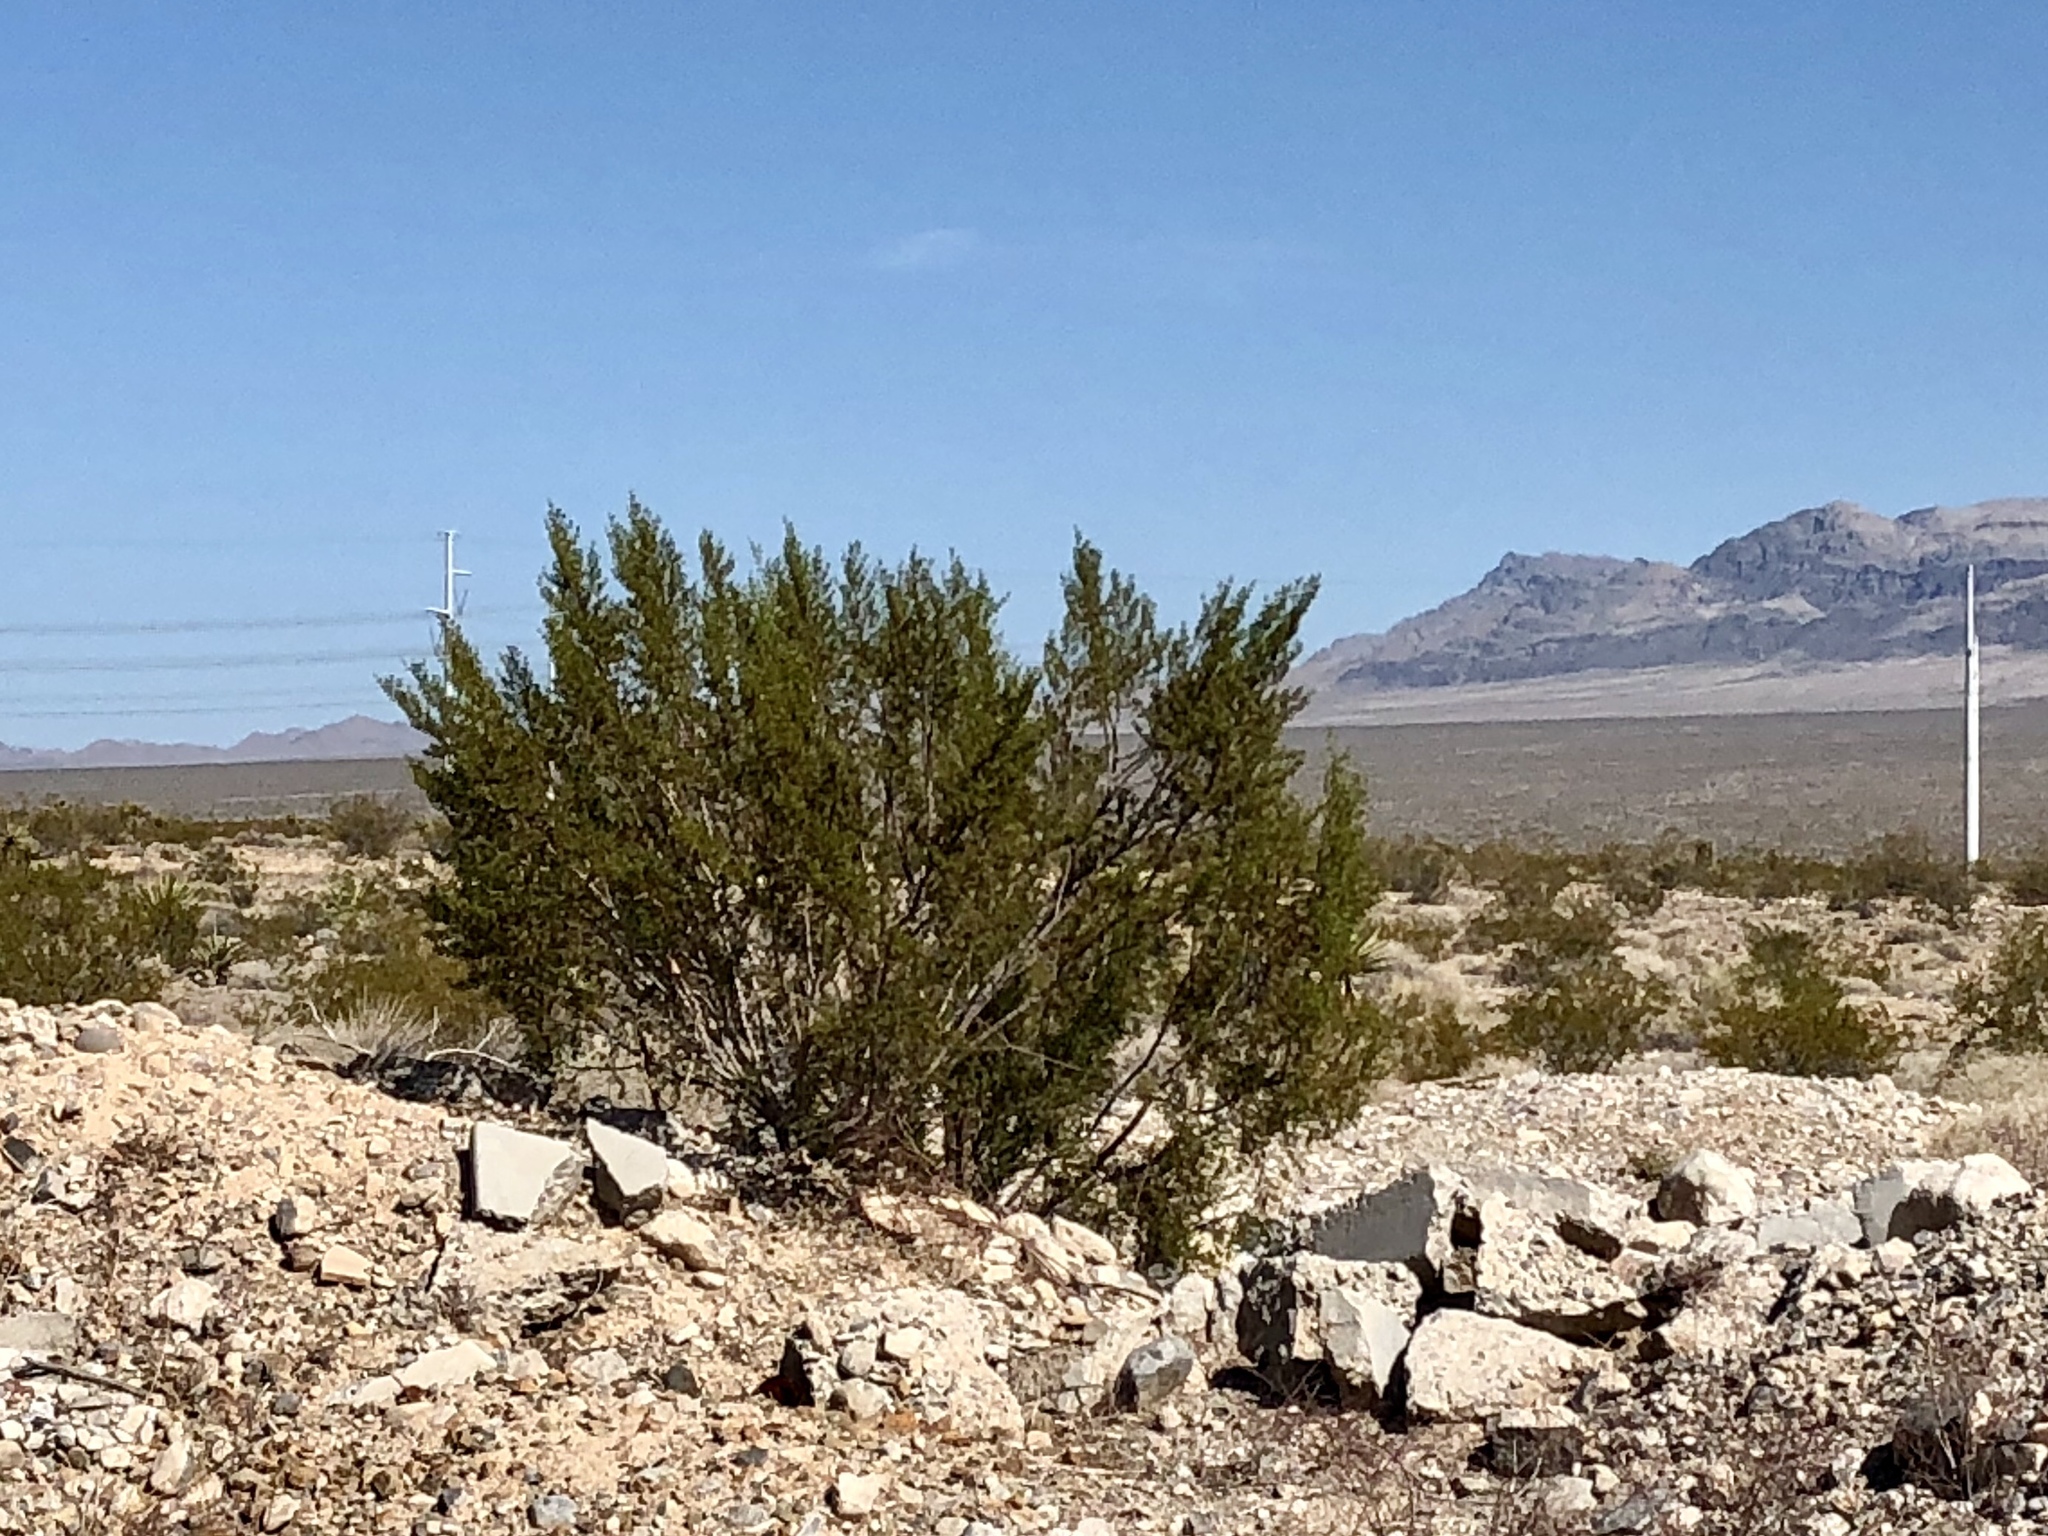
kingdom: Plantae
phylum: Tracheophyta
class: Magnoliopsida
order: Zygophyllales
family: Zygophyllaceae
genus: Larrea
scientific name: Larrea tridentata
